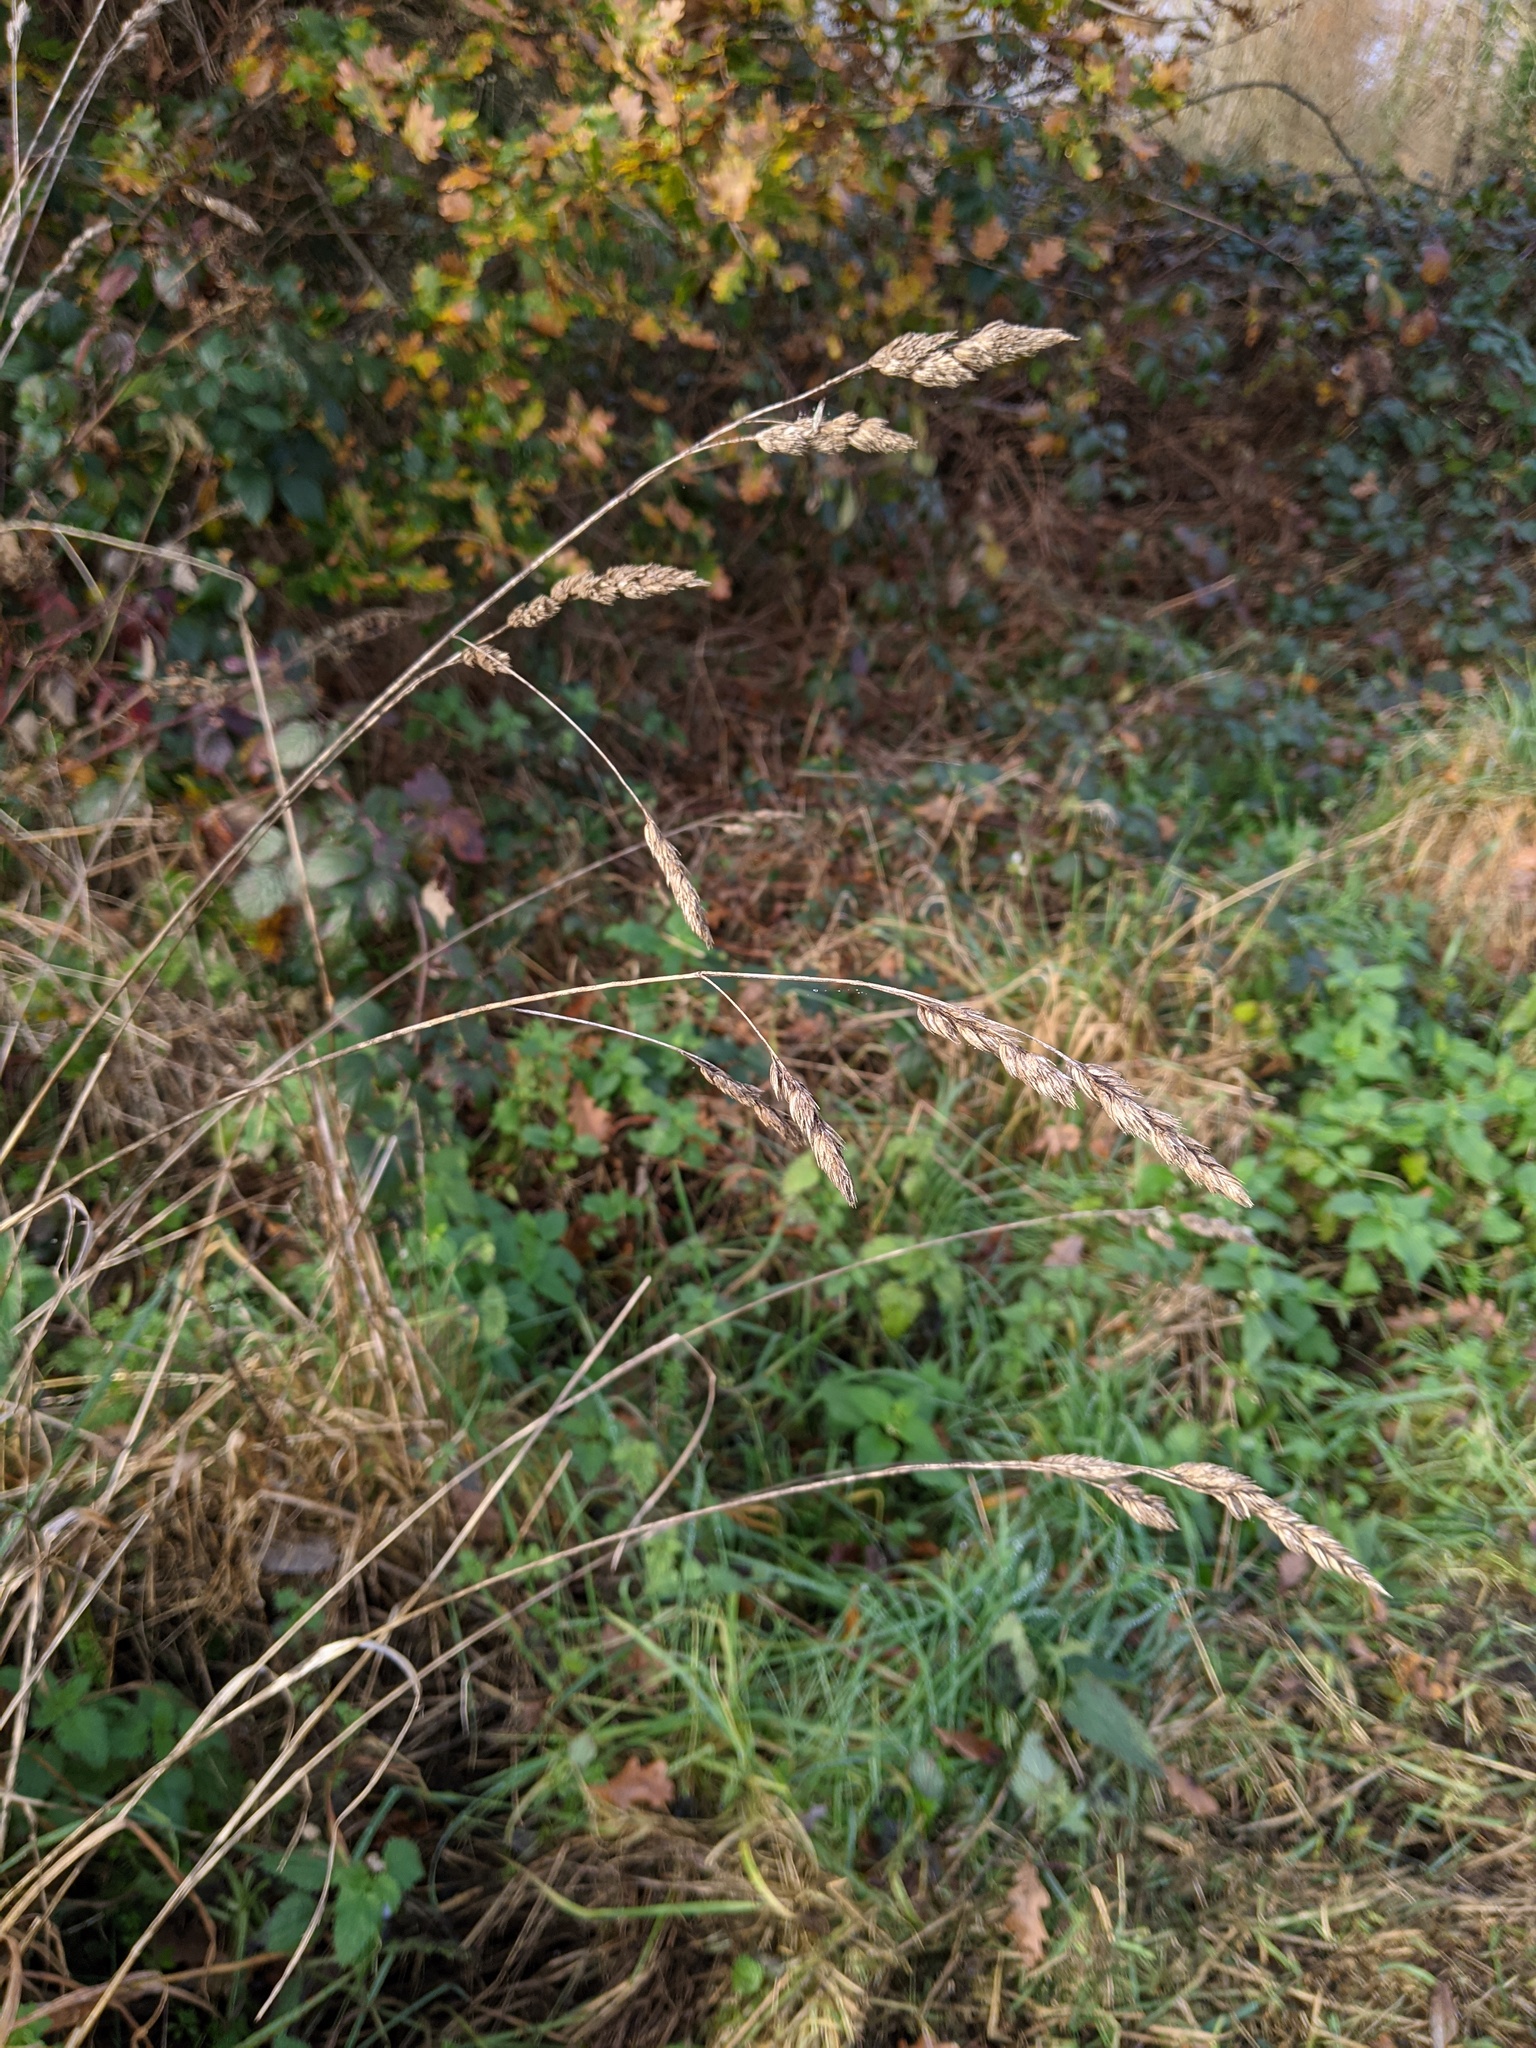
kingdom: Plantae
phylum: Tracheophyta
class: Liliopsida
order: Poales
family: Poaceae
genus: Dactylis
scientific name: Dactylis glomerata
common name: Orchardgrass
